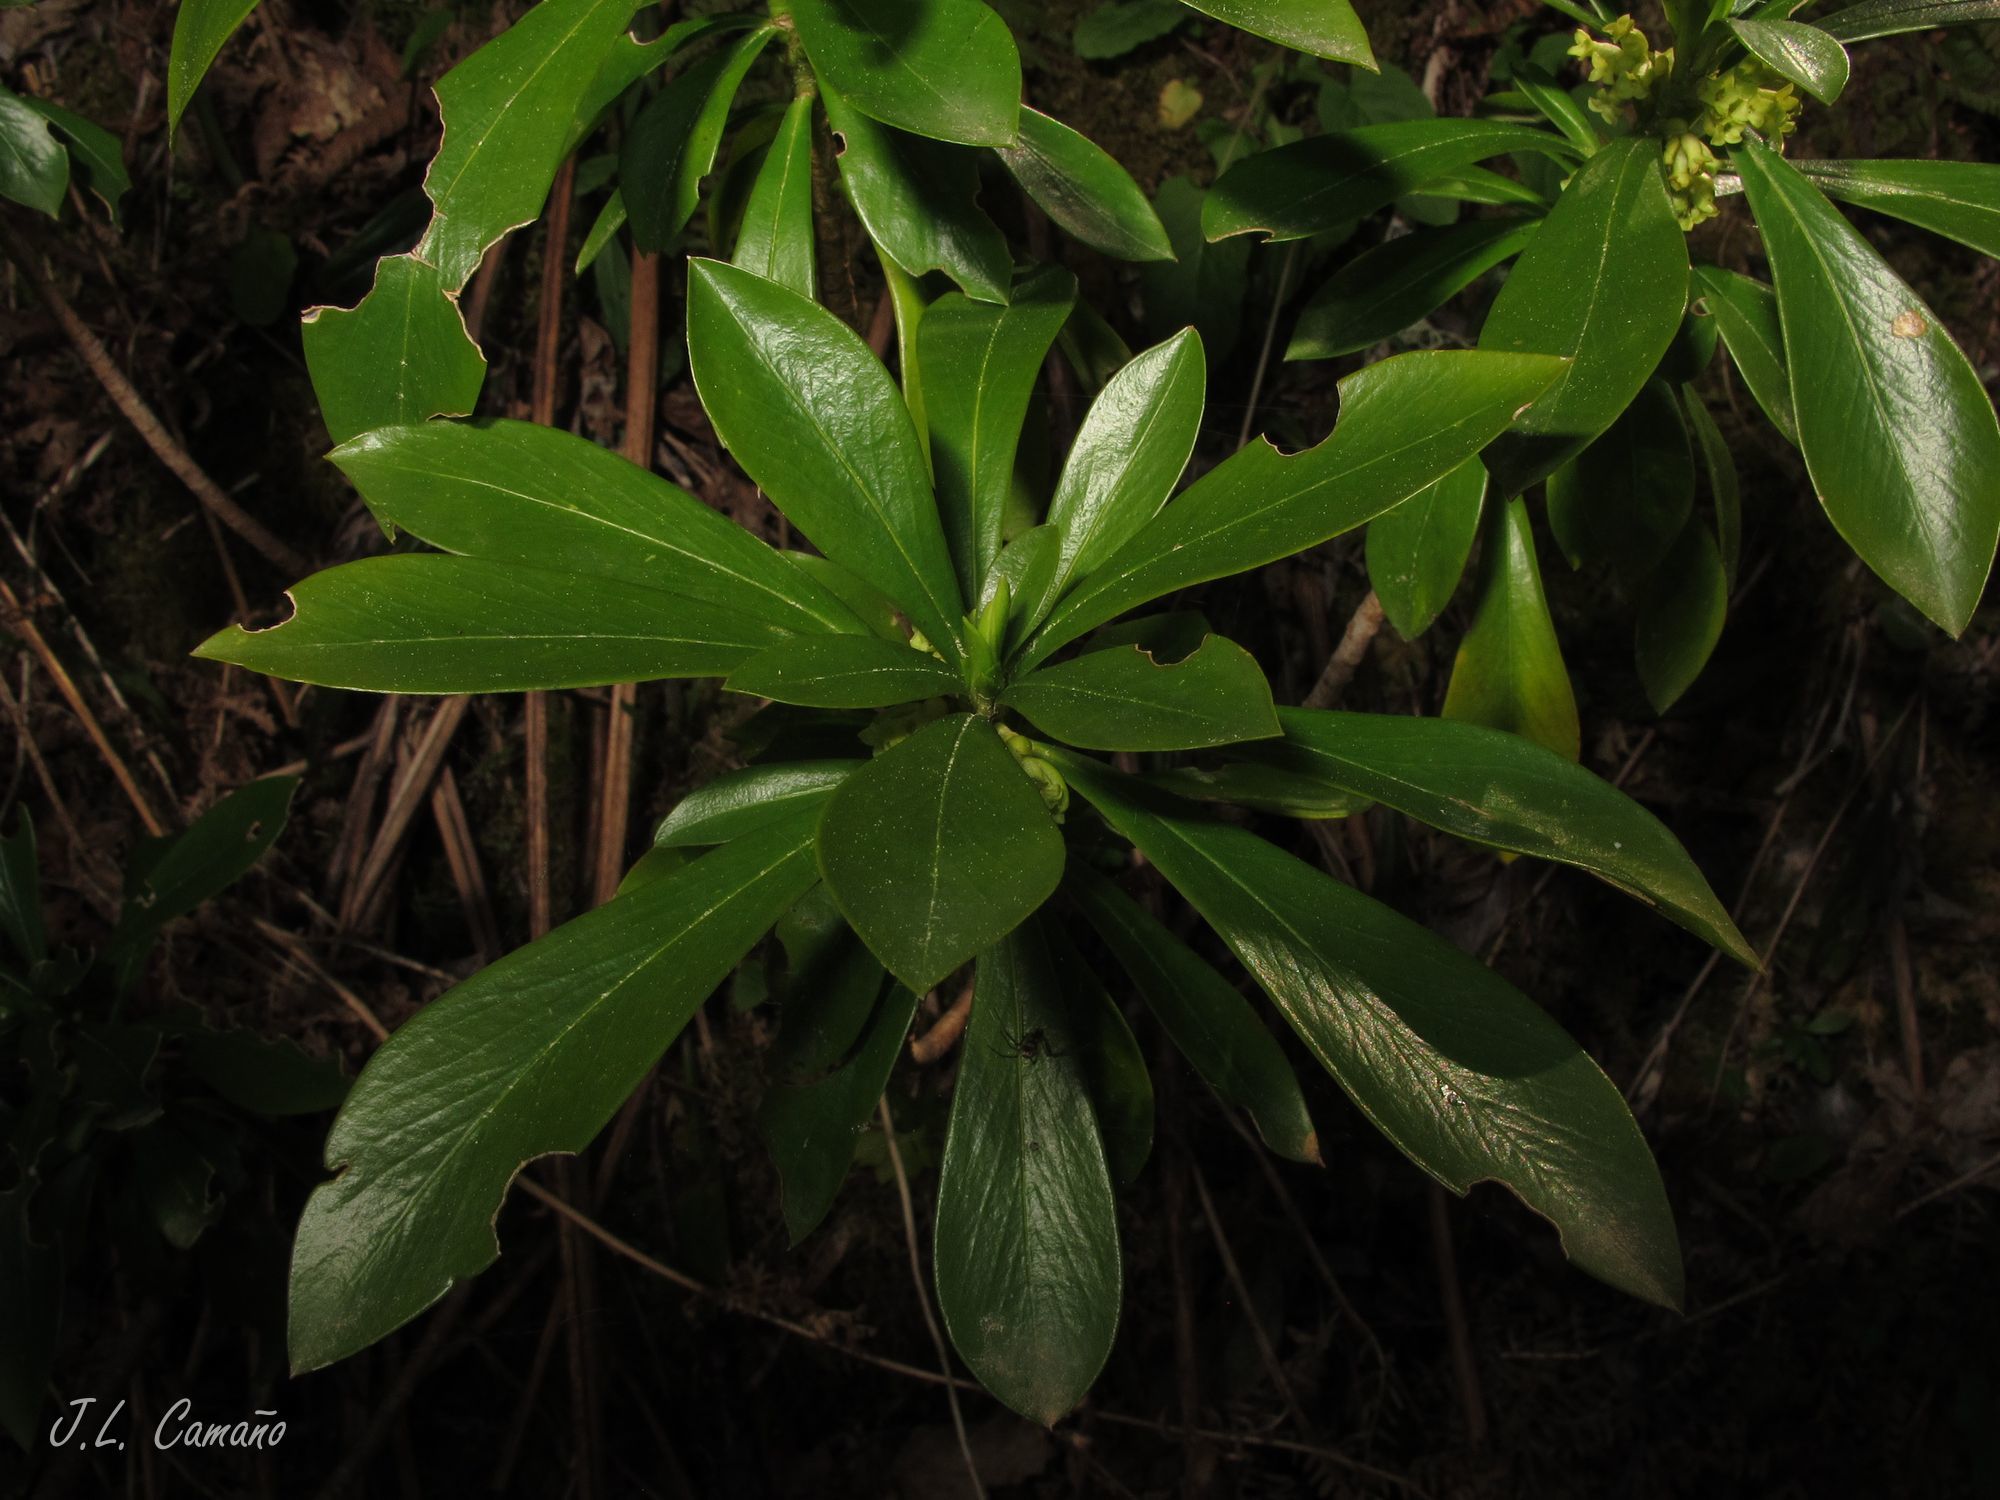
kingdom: Plantae
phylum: Tracheophyta
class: Magnoliopsida
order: Malvales
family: Thymelaeaceae
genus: Daphne
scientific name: Daphne laureola
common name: Spurge-laurel
